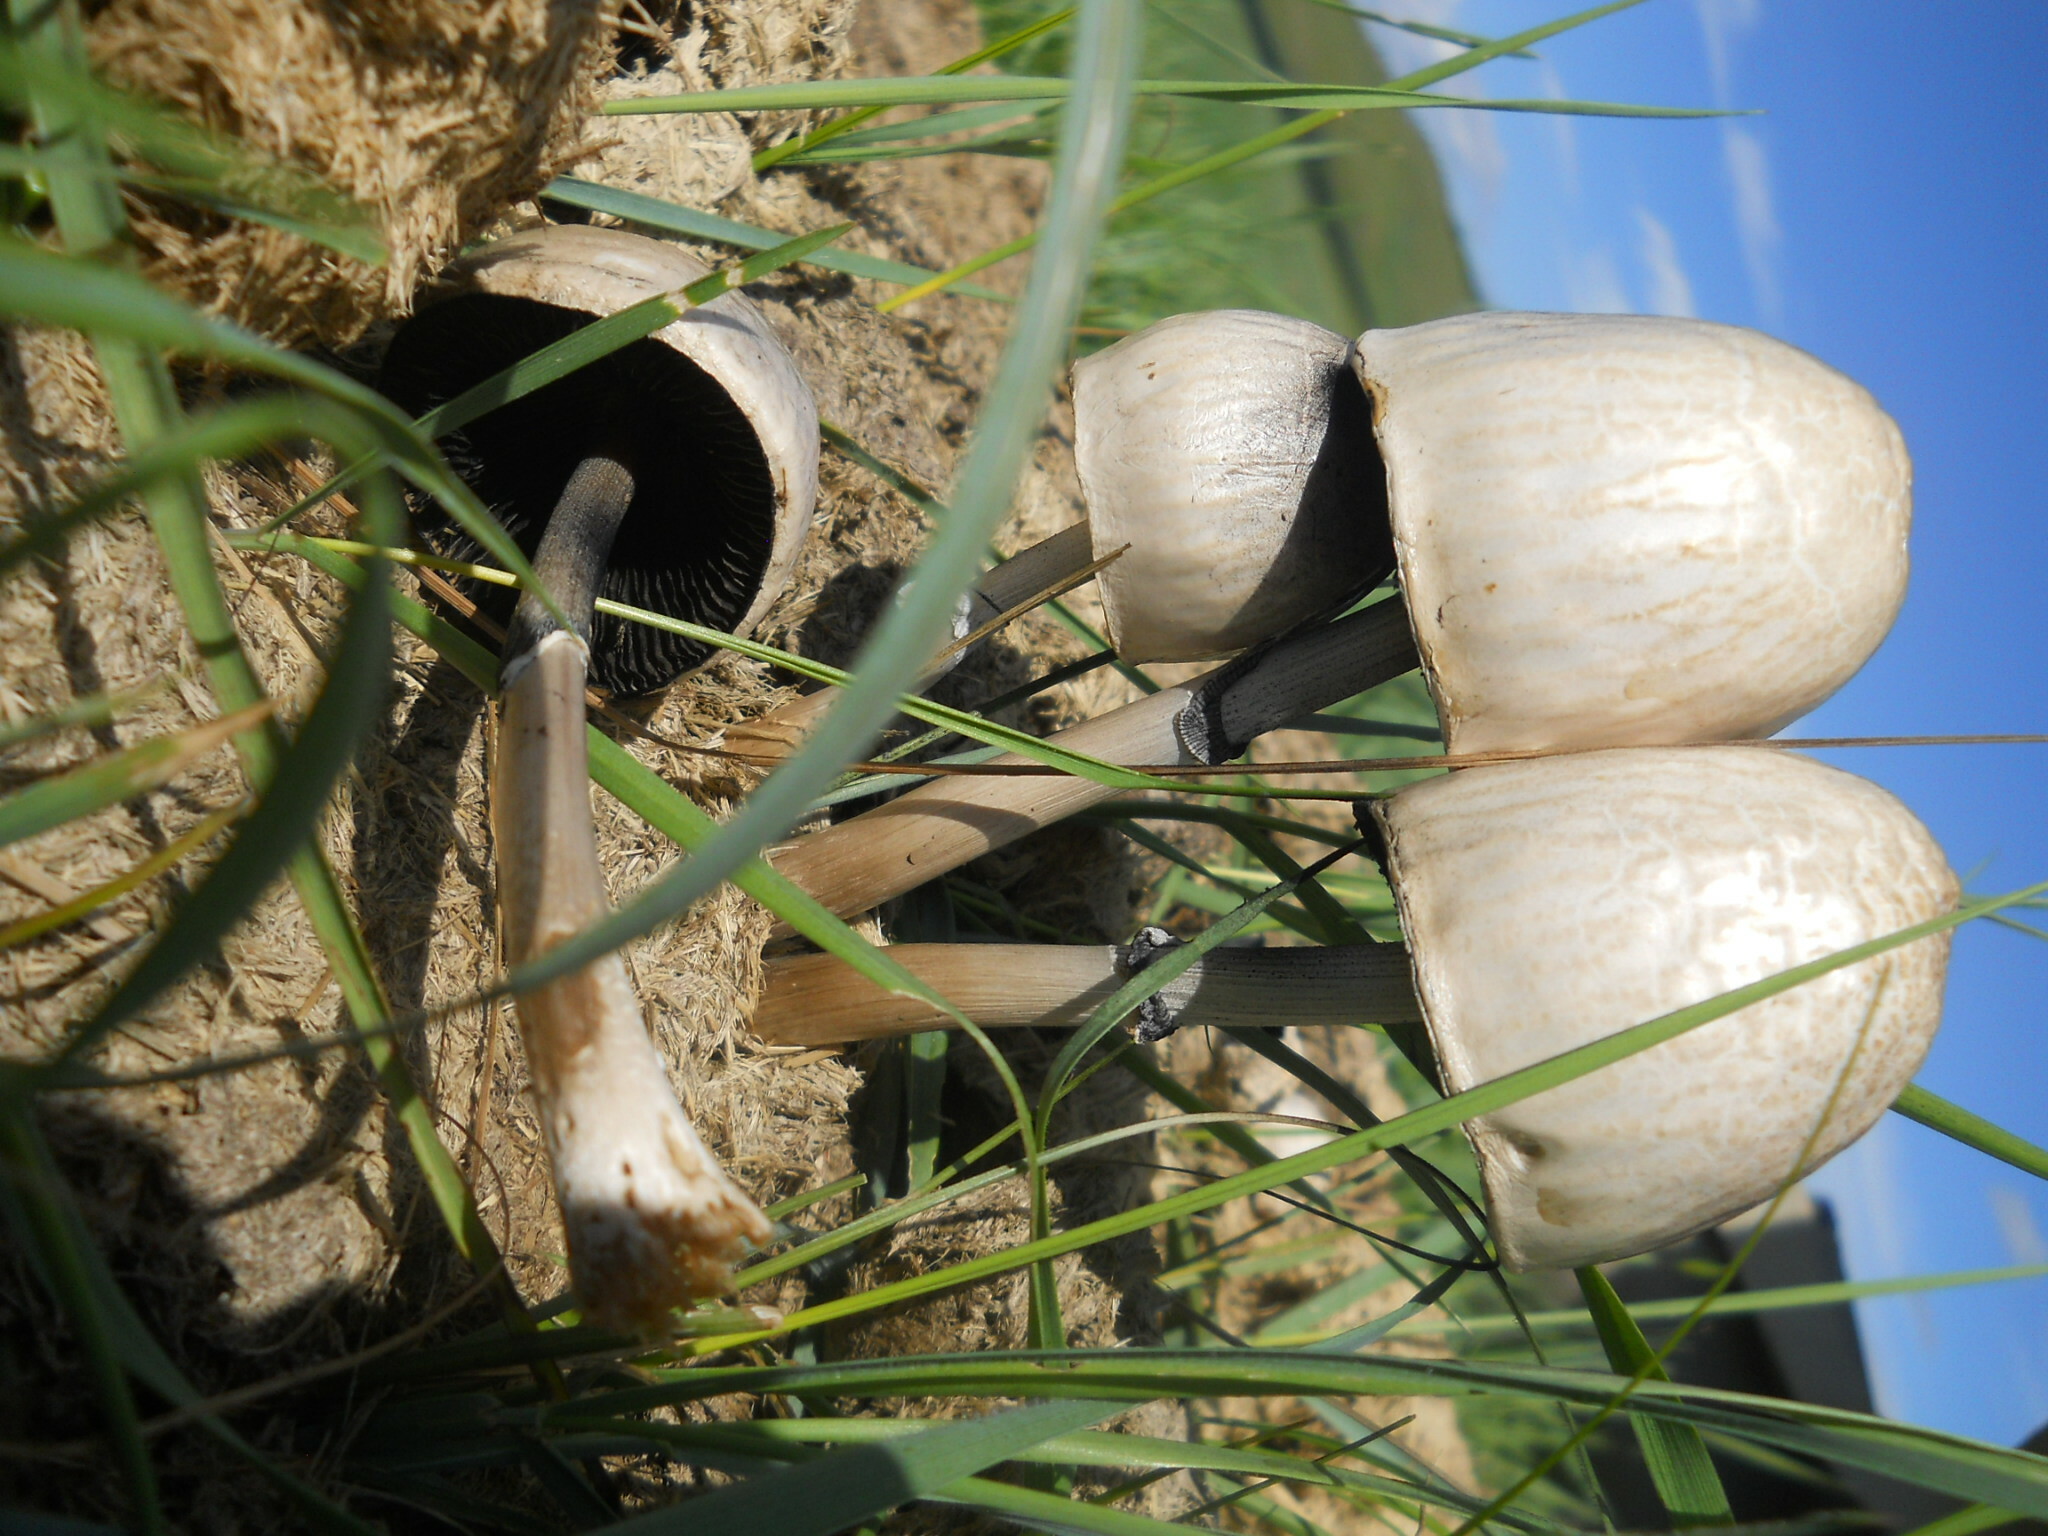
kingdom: Fungi
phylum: Basidiomycota
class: Agaricomycetes
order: Agaricales
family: Bolbitiaceae
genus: Panaeolus
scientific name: Panaeolus semiovatus
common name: Shiny mottlegill
